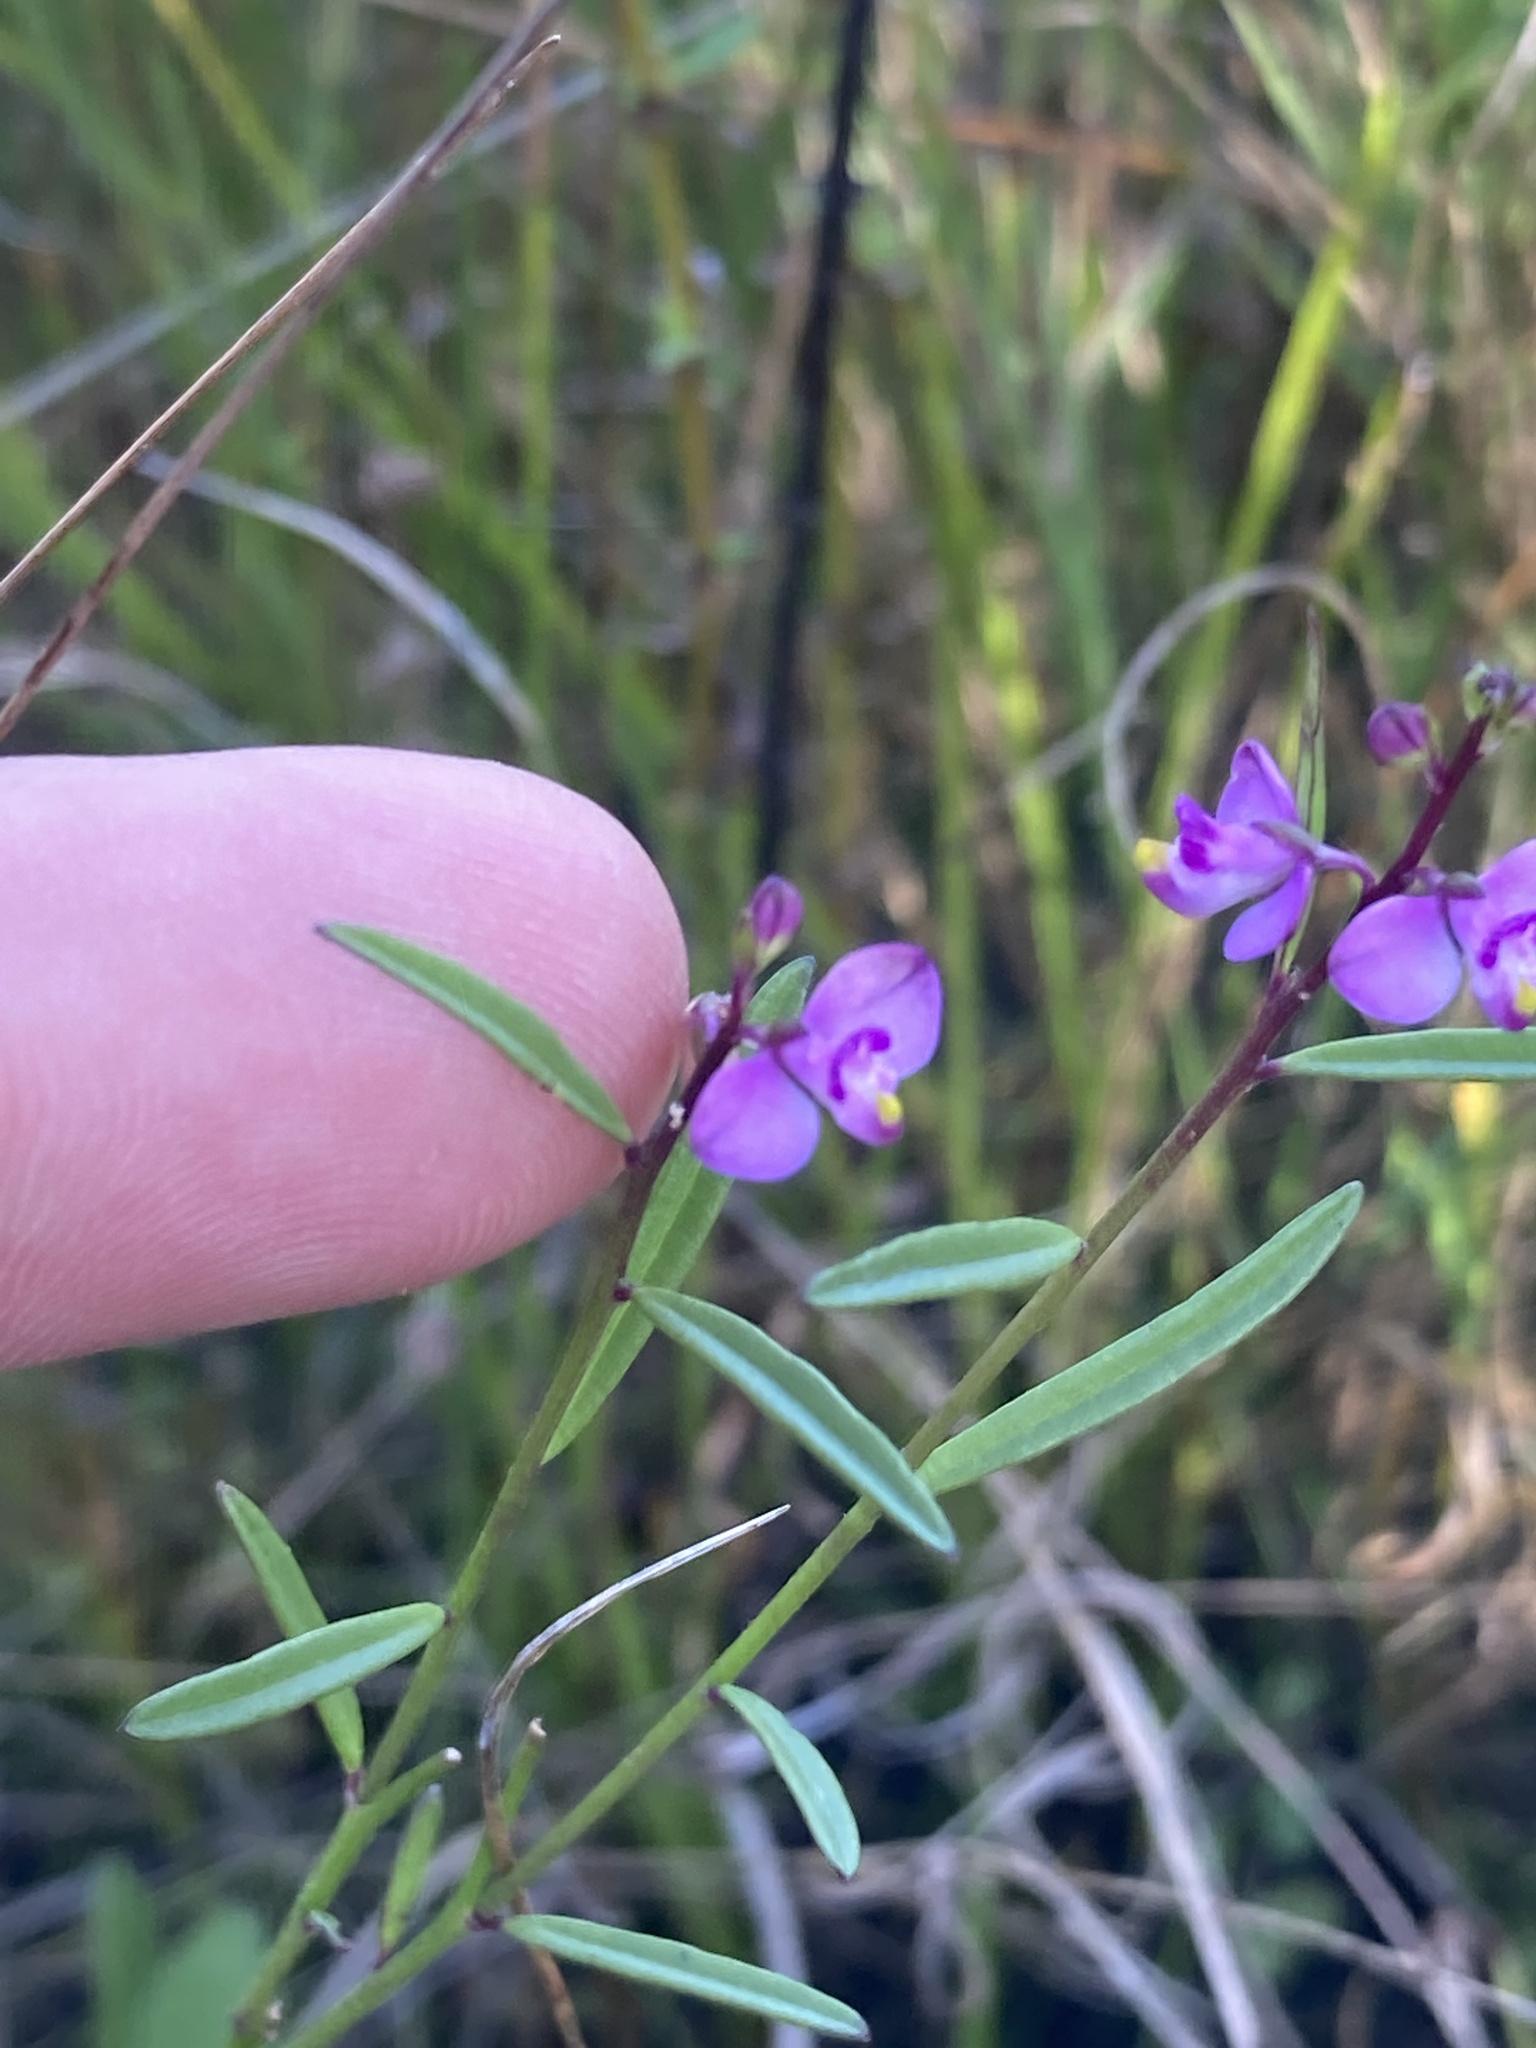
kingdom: Plantae
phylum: Tracheophyta
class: Magnoliopsida
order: Fabales
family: Polygalaceae
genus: Asemeia
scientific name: Asemeia grandiflora
